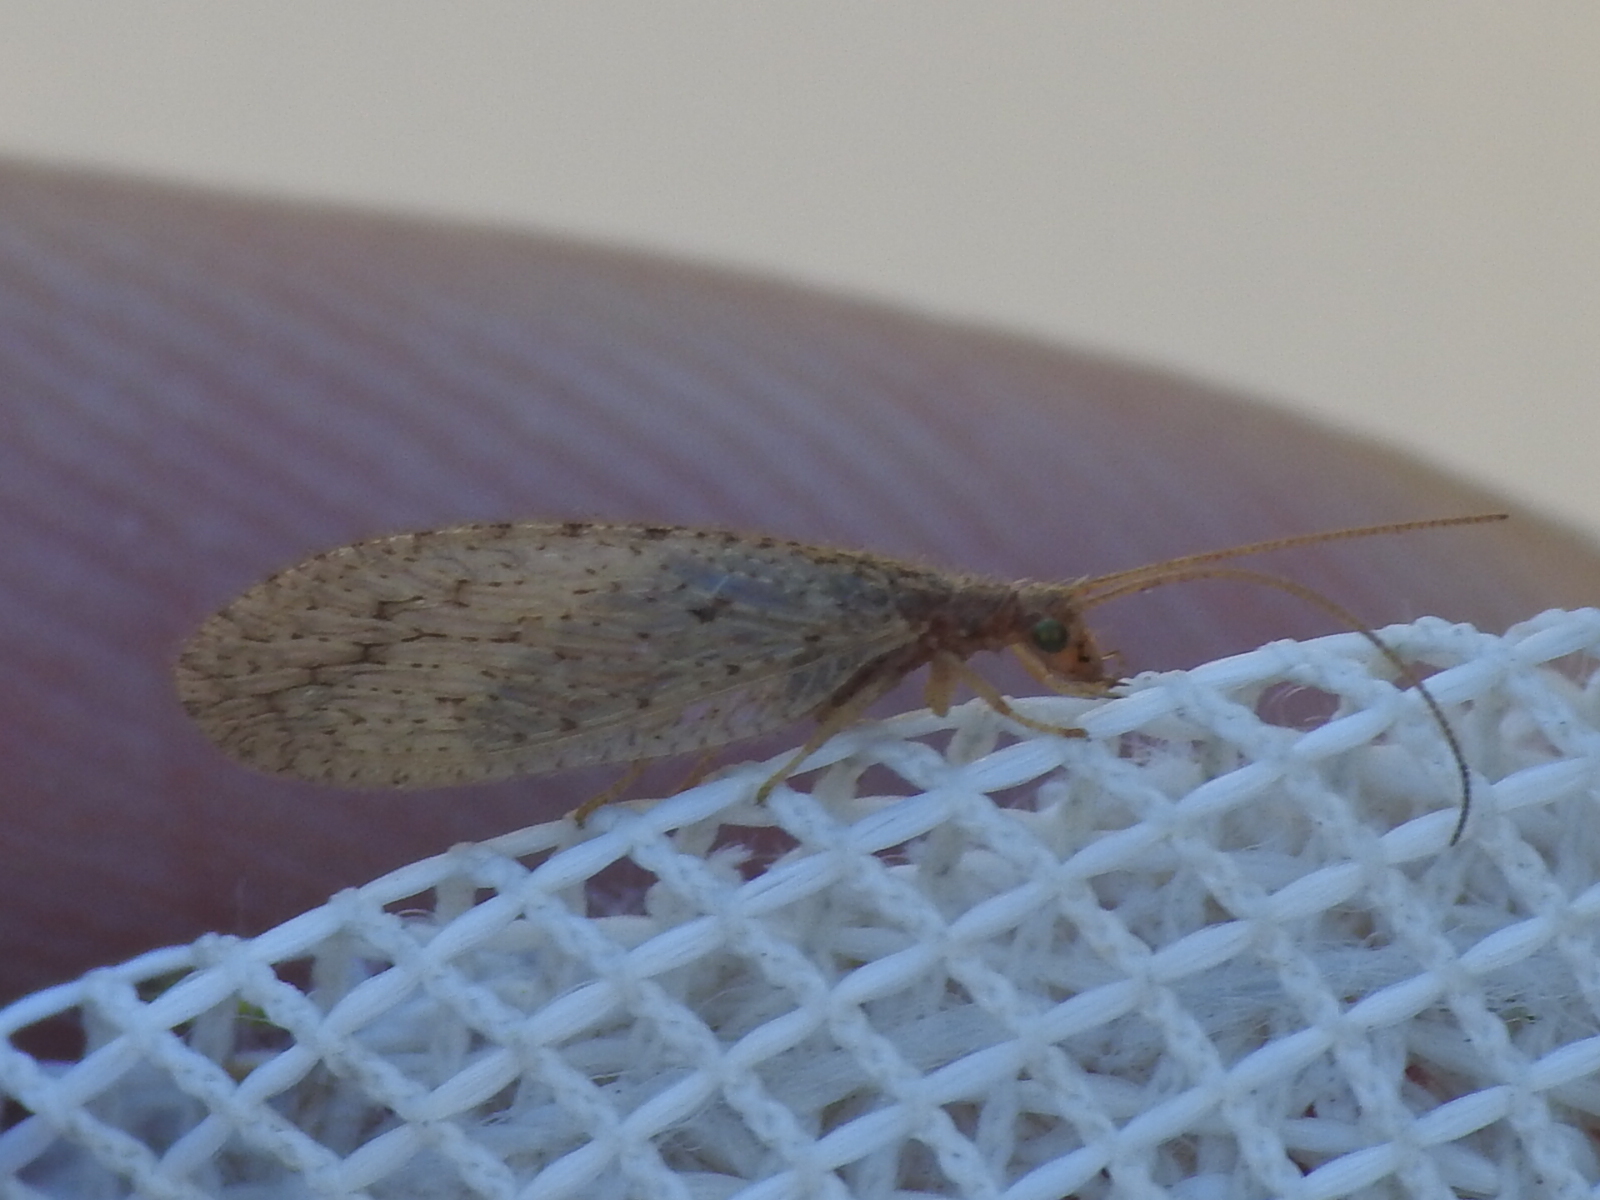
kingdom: Animalia
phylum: Arthropoda
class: Insecta
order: Neuroptera
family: Hemerobiidae
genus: Micromus
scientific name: Micromus subanticus
